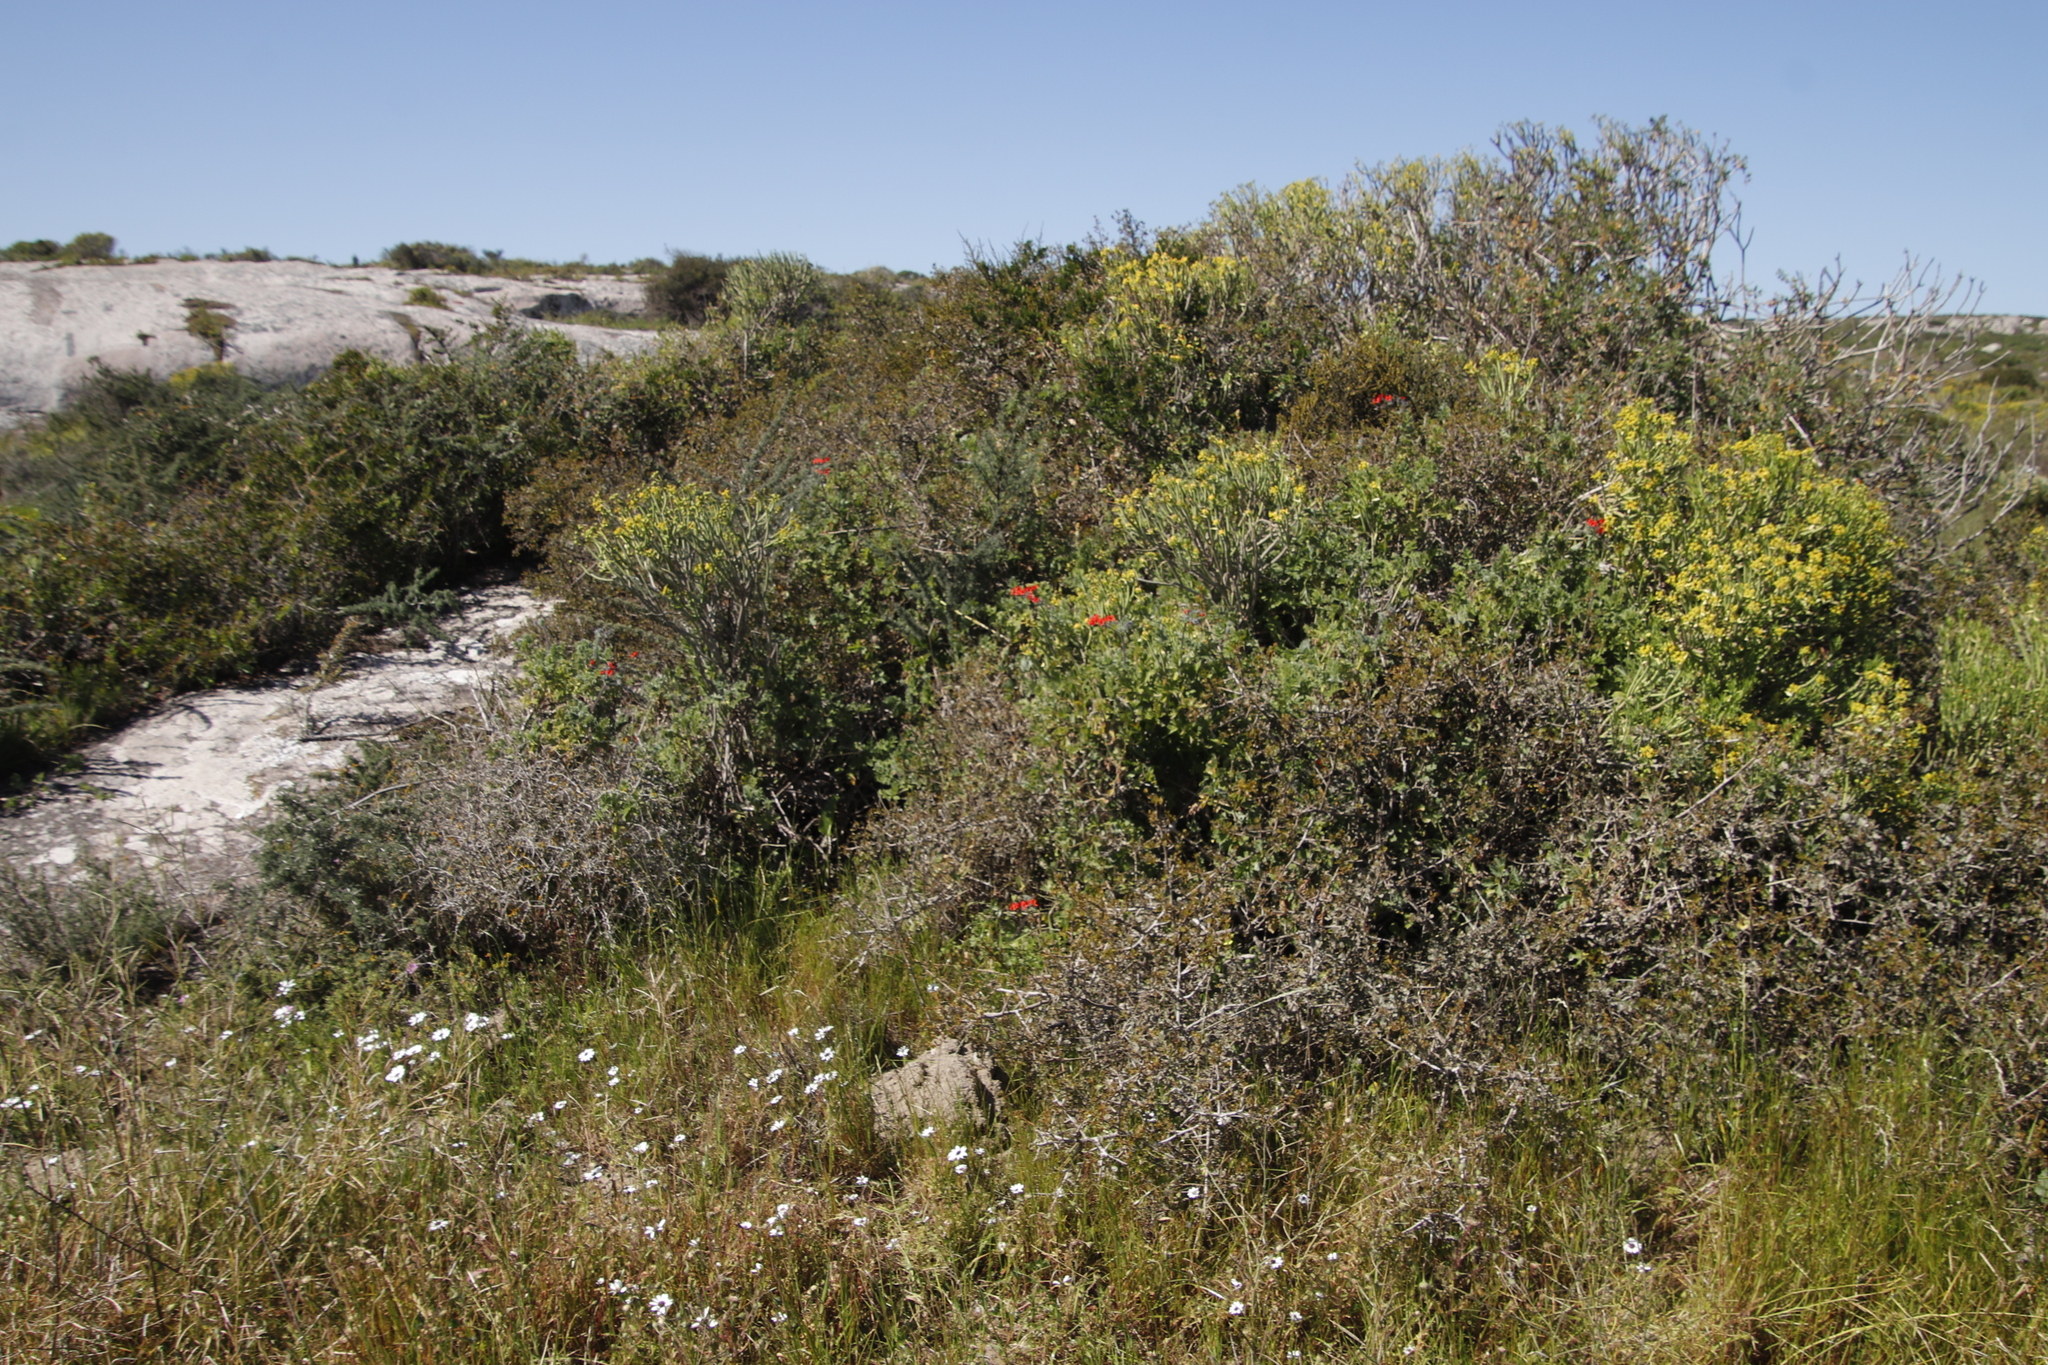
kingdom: Plantae
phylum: Tracheophyta
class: Magnoliopsida
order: Geraniales
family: Geraniaceae
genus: Pelargonium
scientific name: Pelargonium fulgidum
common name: Celandine-leaf pelargonium
